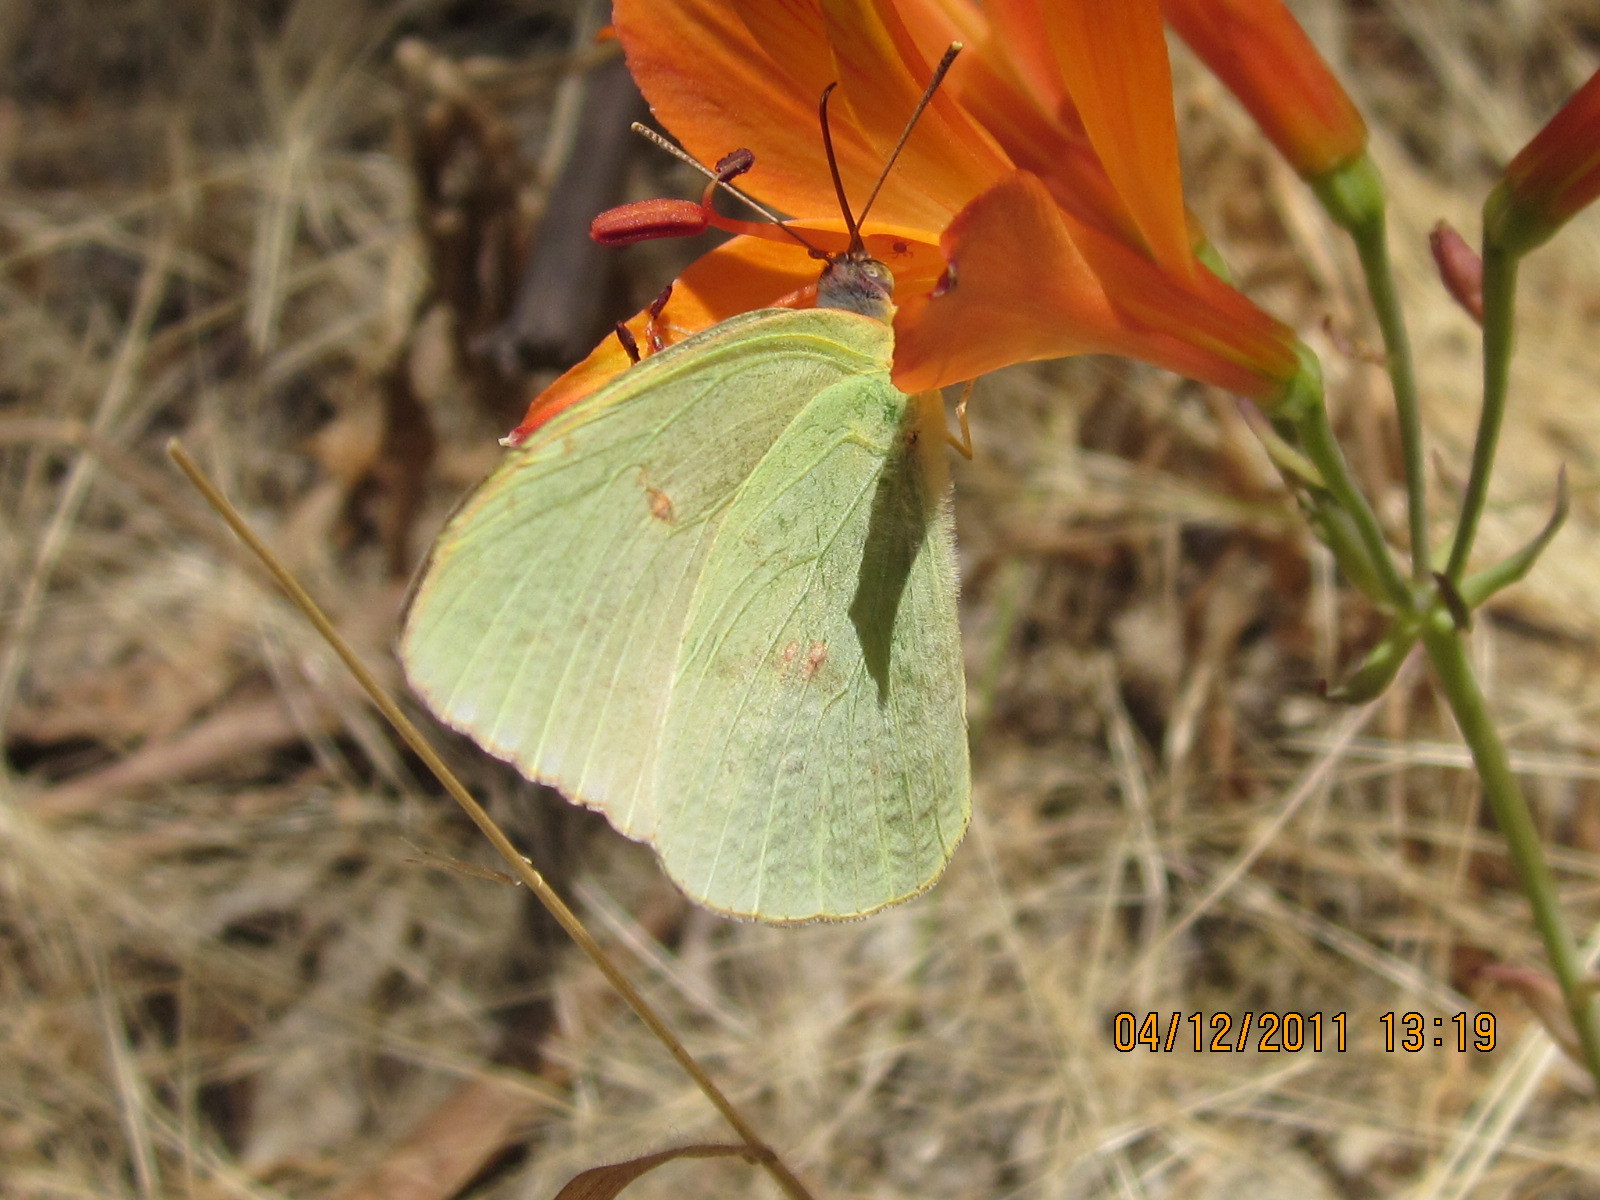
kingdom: Animalia
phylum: Arthropoda
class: Insecta
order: Lepidoptera
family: Pieridae
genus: Phoebis
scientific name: Phoebis sennae
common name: Cloudless sulphur
